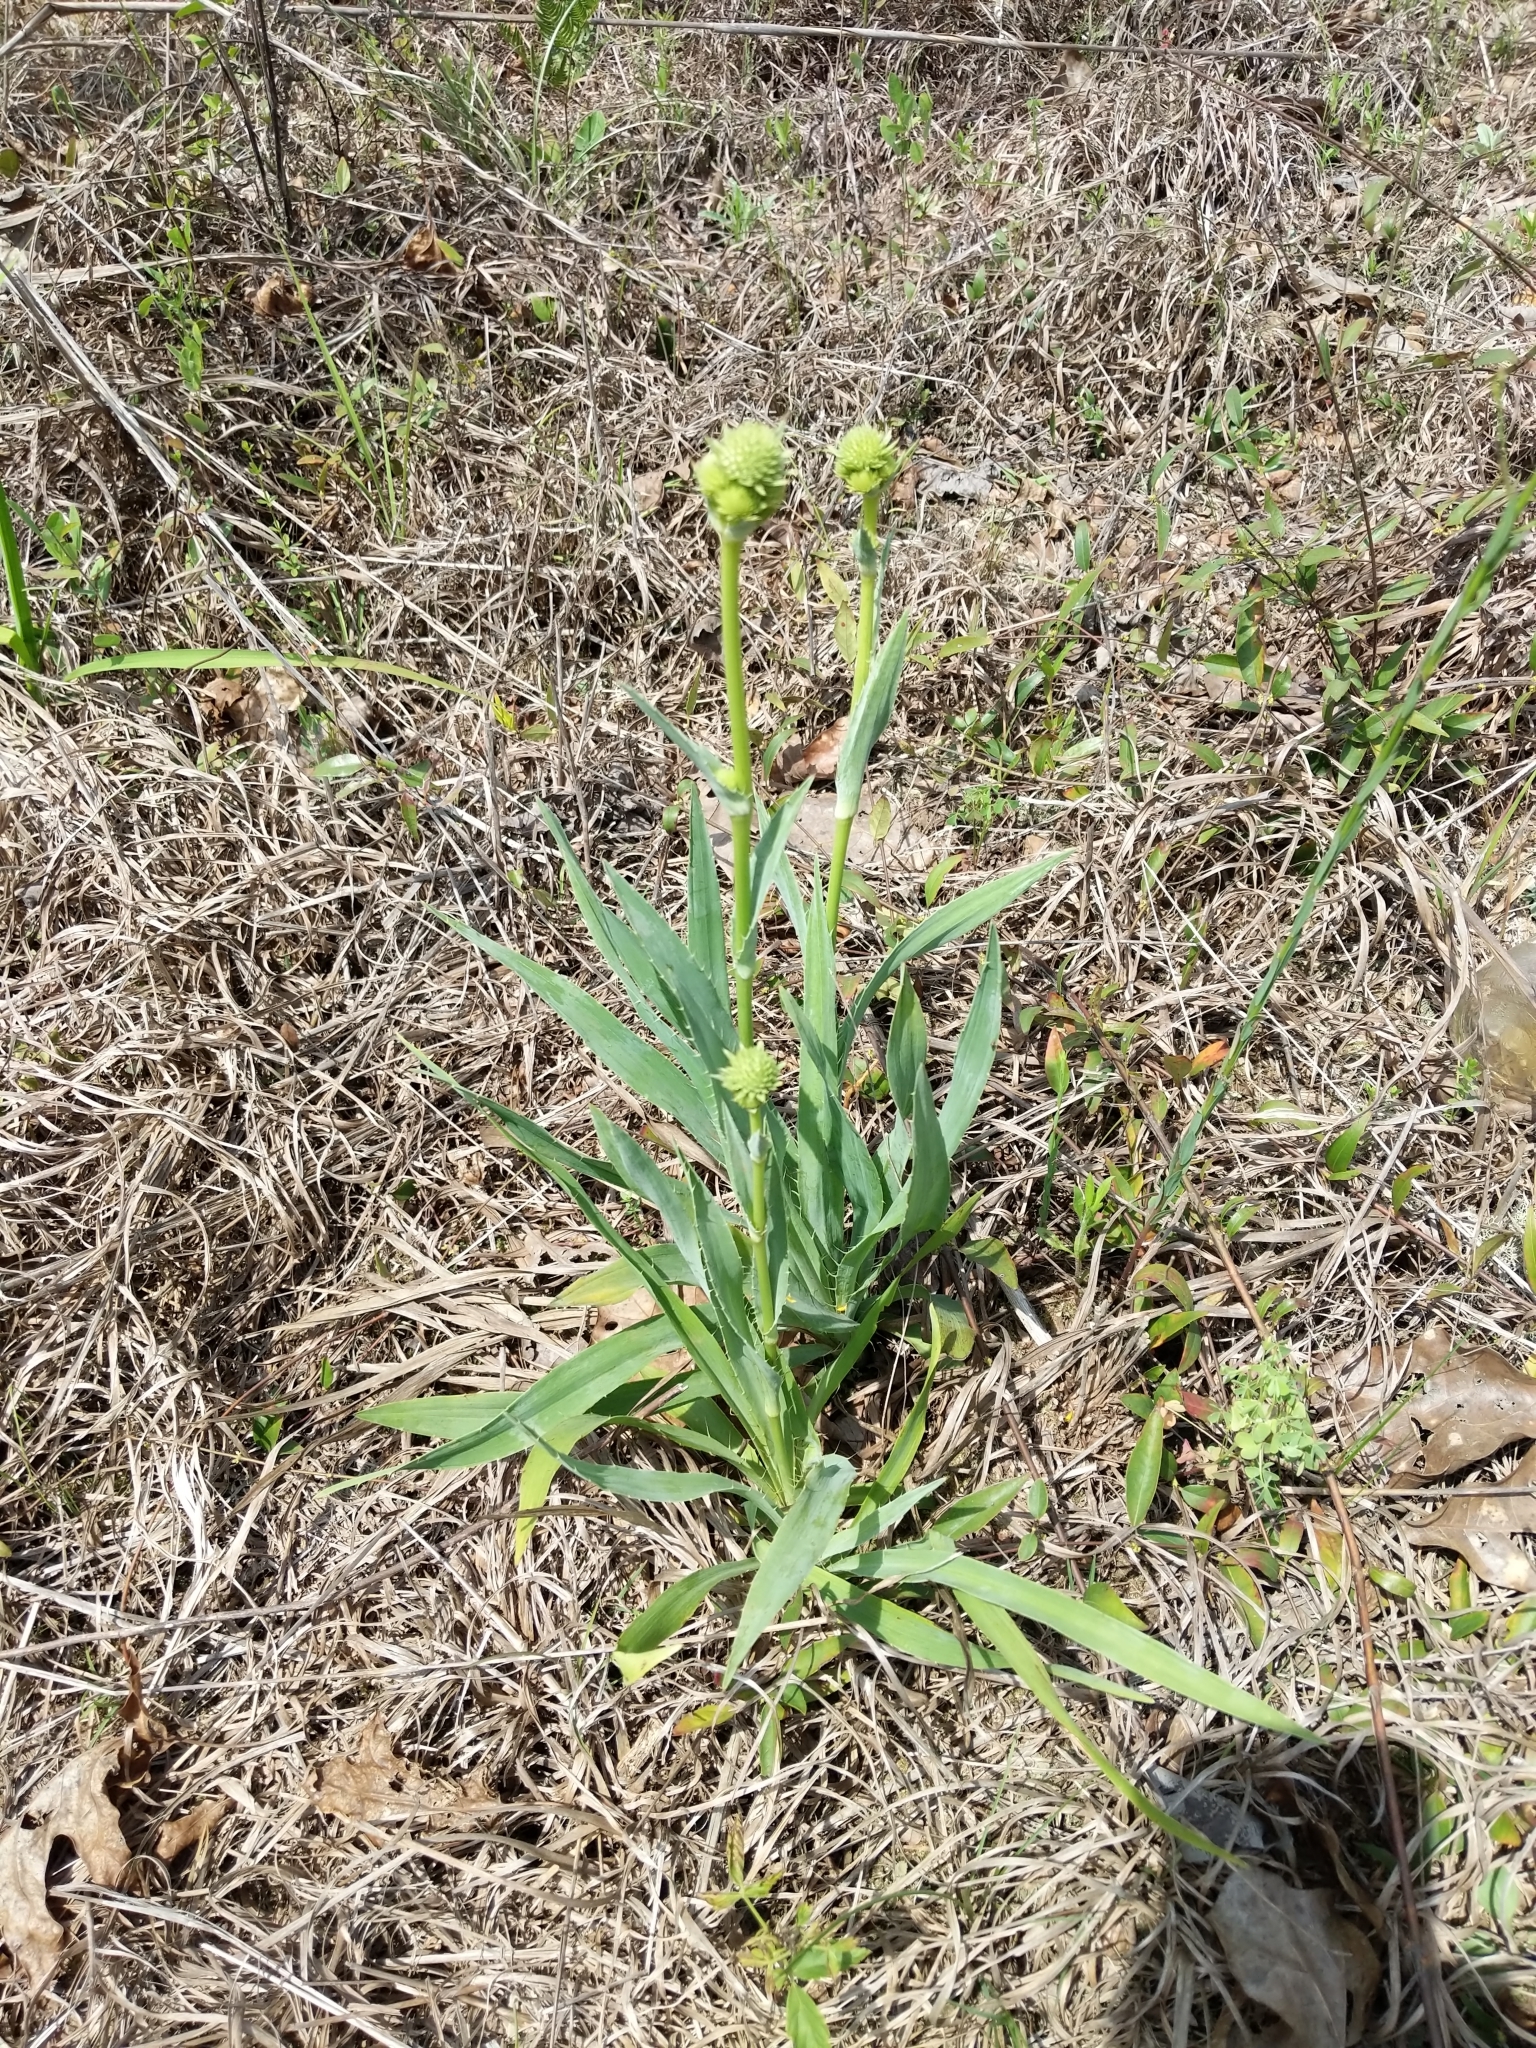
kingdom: Plantae
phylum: Tracheophyta
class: Magnoliopsida
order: Apiales
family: Apiaceae
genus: Eryngium
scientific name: Eryngium yuccifolium
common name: Button eryngo
